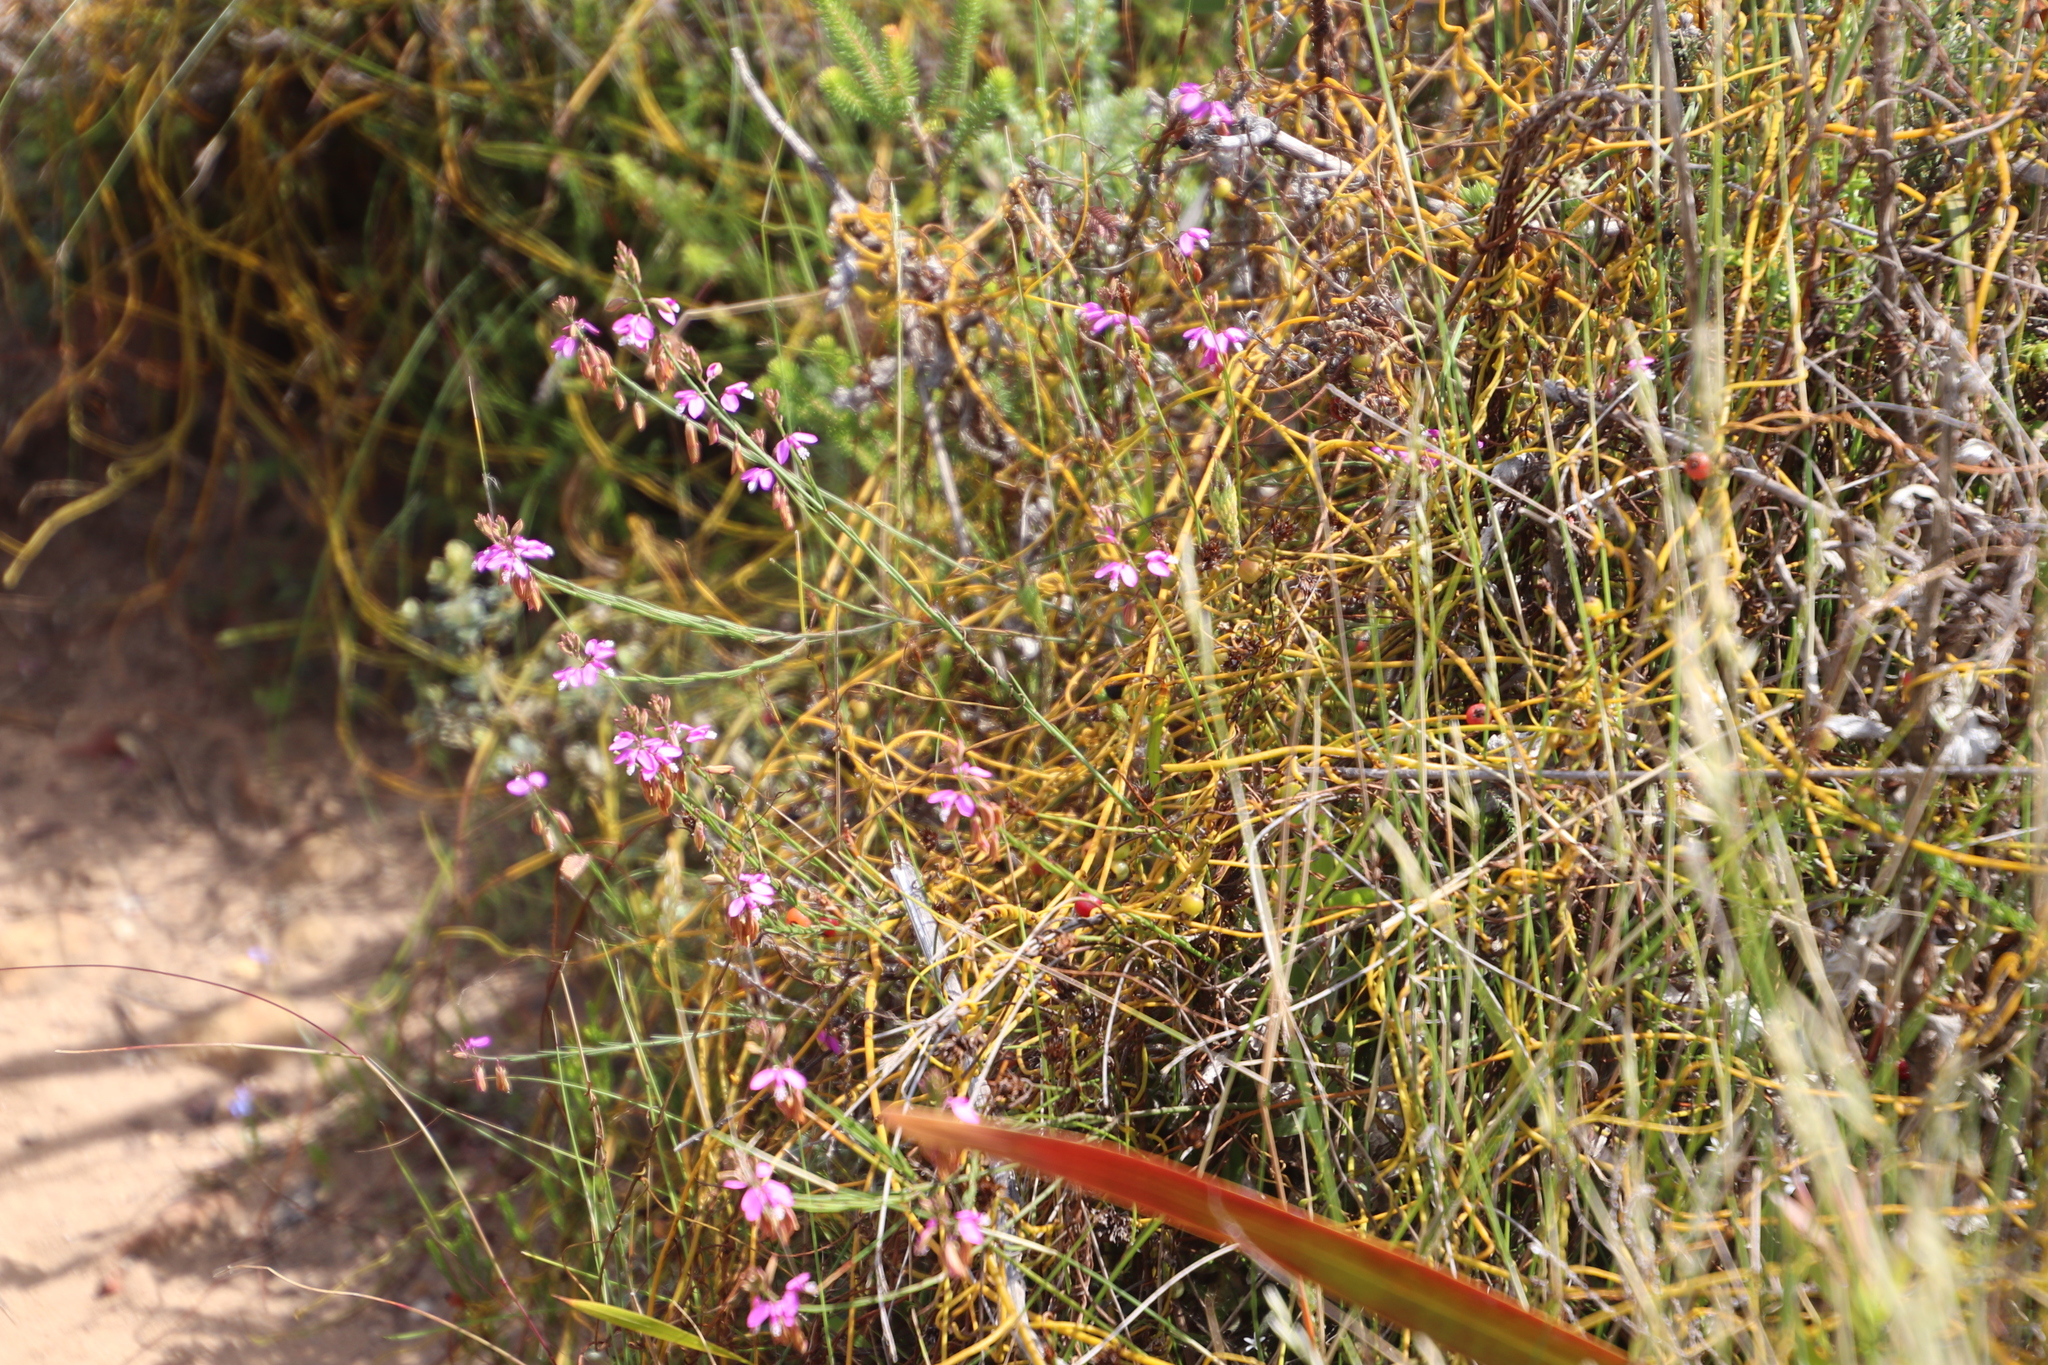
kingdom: Plantae
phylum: Tracheophyta
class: Magnoliopsida
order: Fabales
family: Polygalaceae
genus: Polygala
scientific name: Polygala garcini
